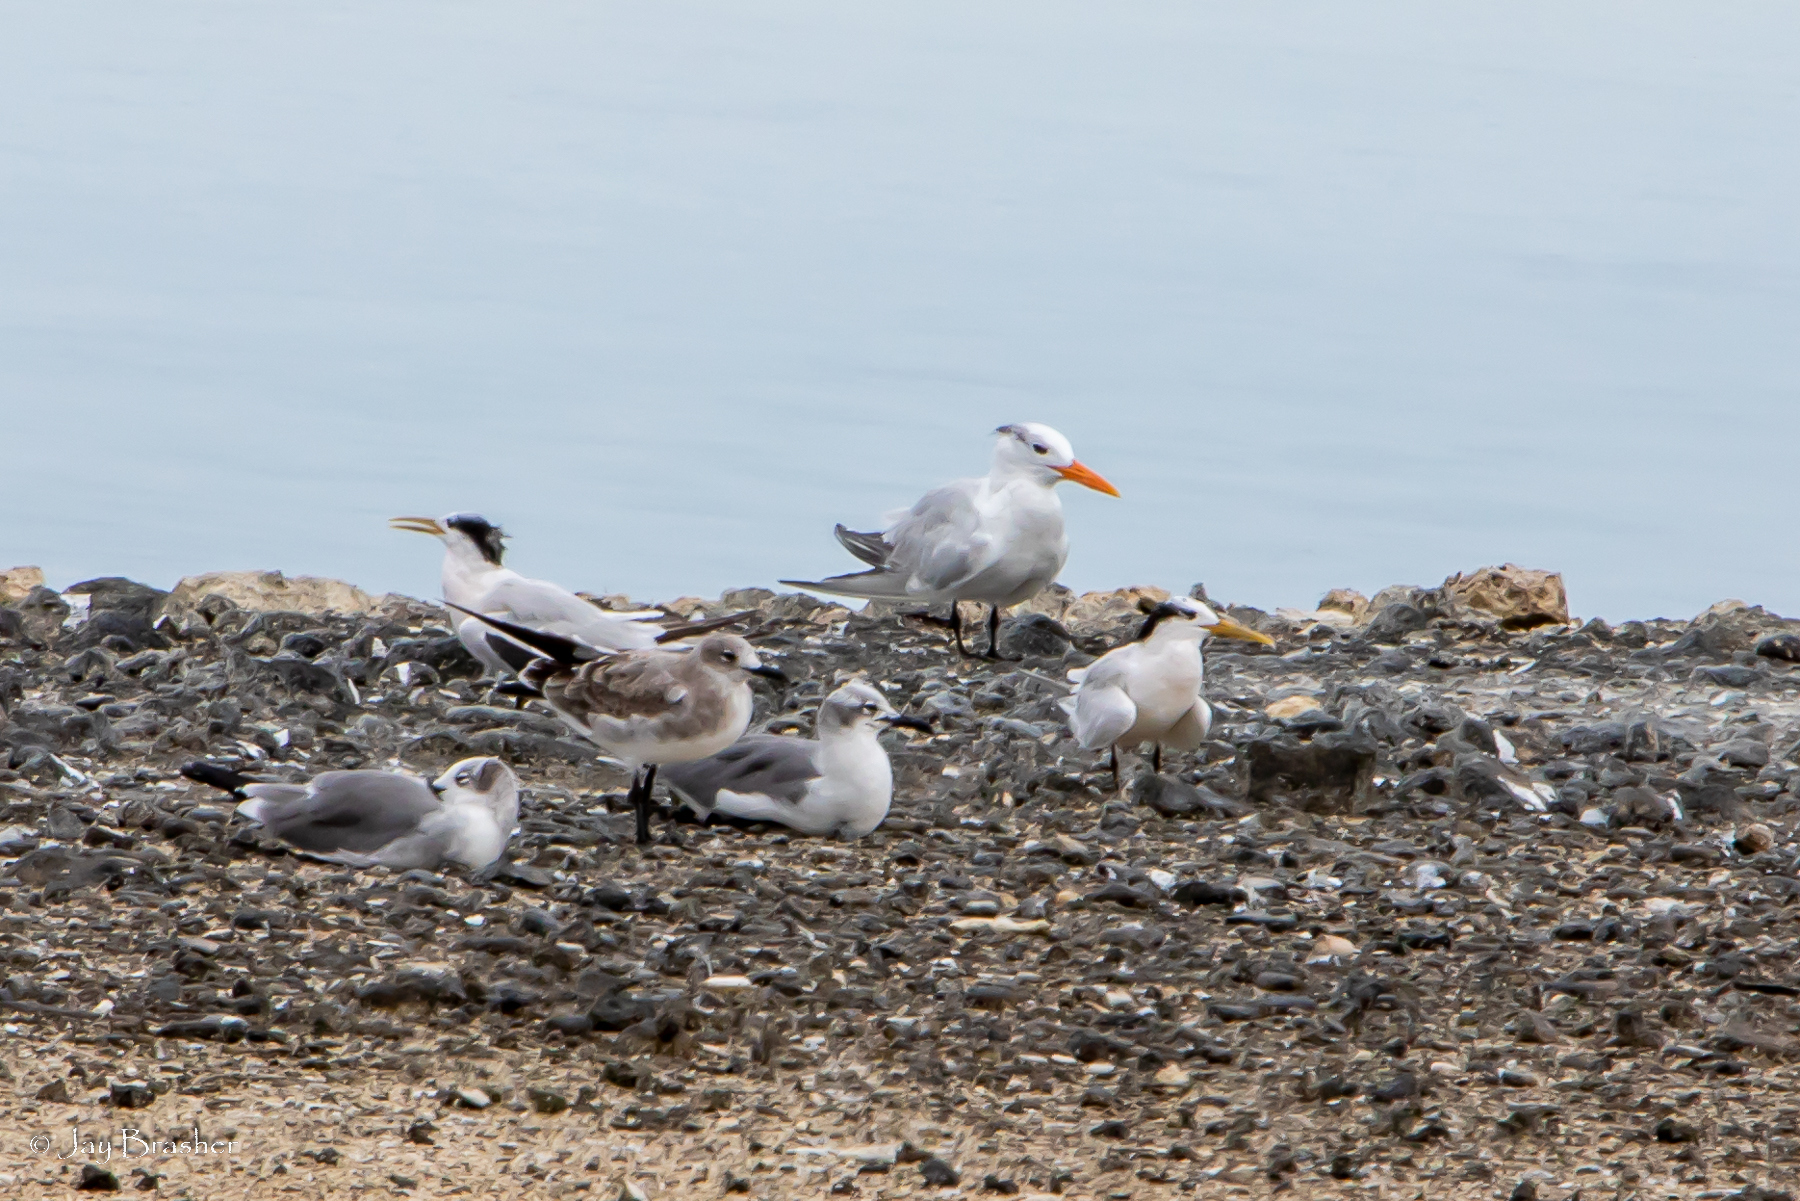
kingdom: Animalia
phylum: Chordata
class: Aves
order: Charadriiformes
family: Laridae
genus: Thalasseus
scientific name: Thalasseus maximus
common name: Royal tern
